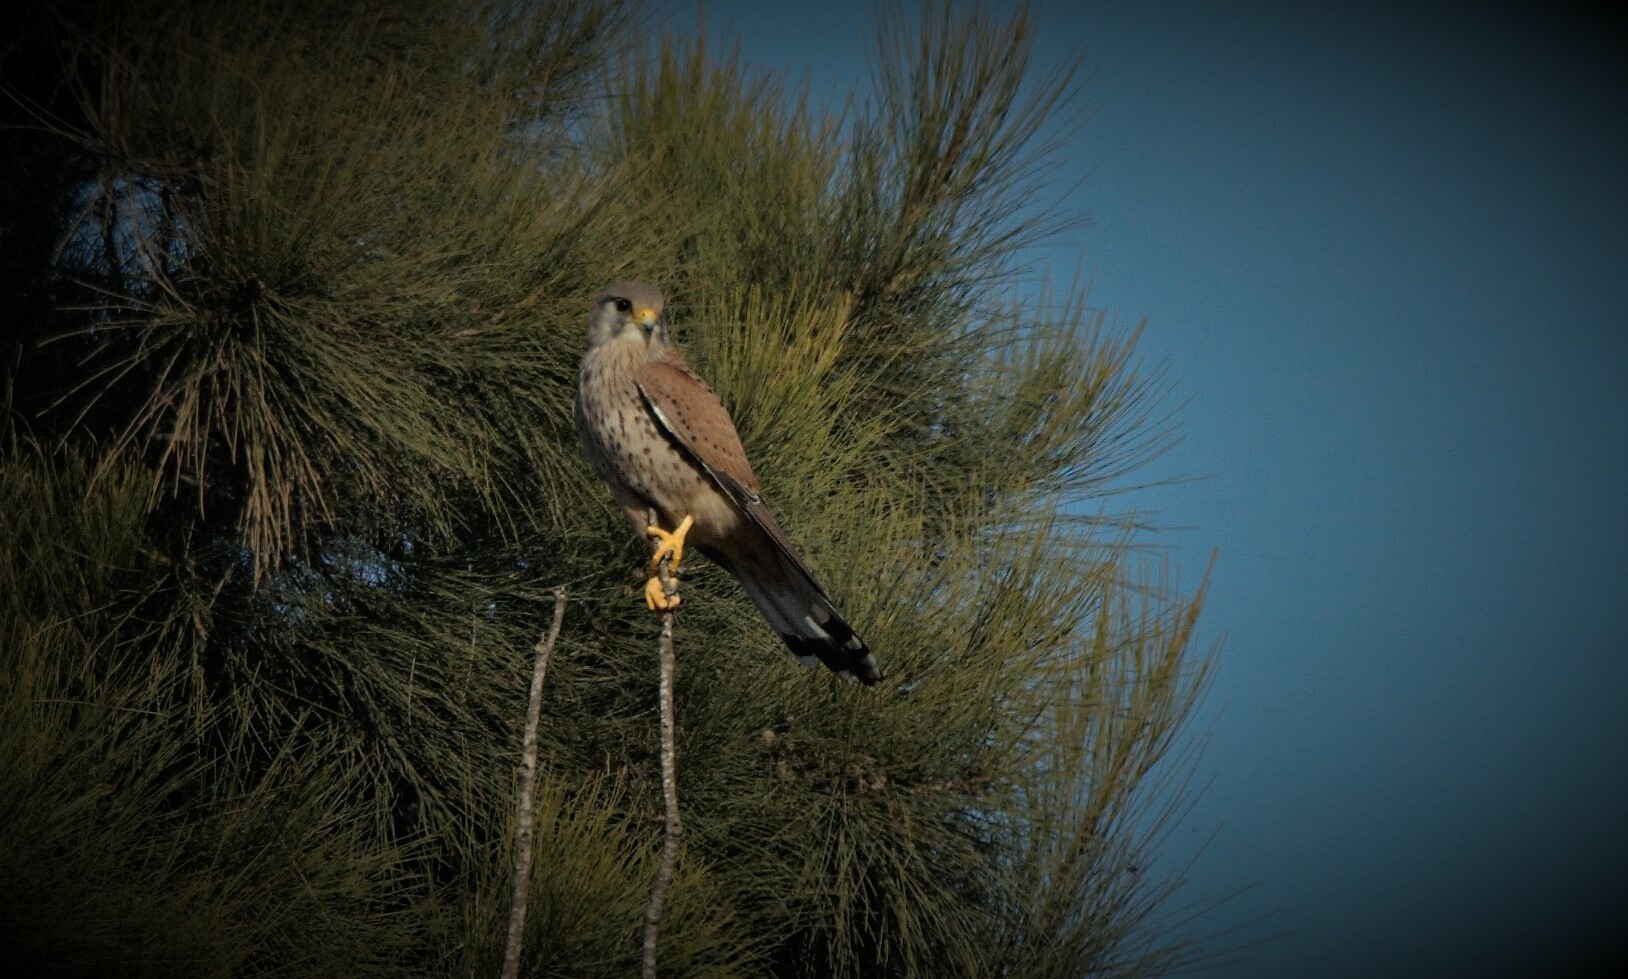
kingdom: Animalia
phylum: Chordata
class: Aves
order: Falconiformes
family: Falconidae
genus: Falco
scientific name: Falco tinnunculus
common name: Common kestrel
